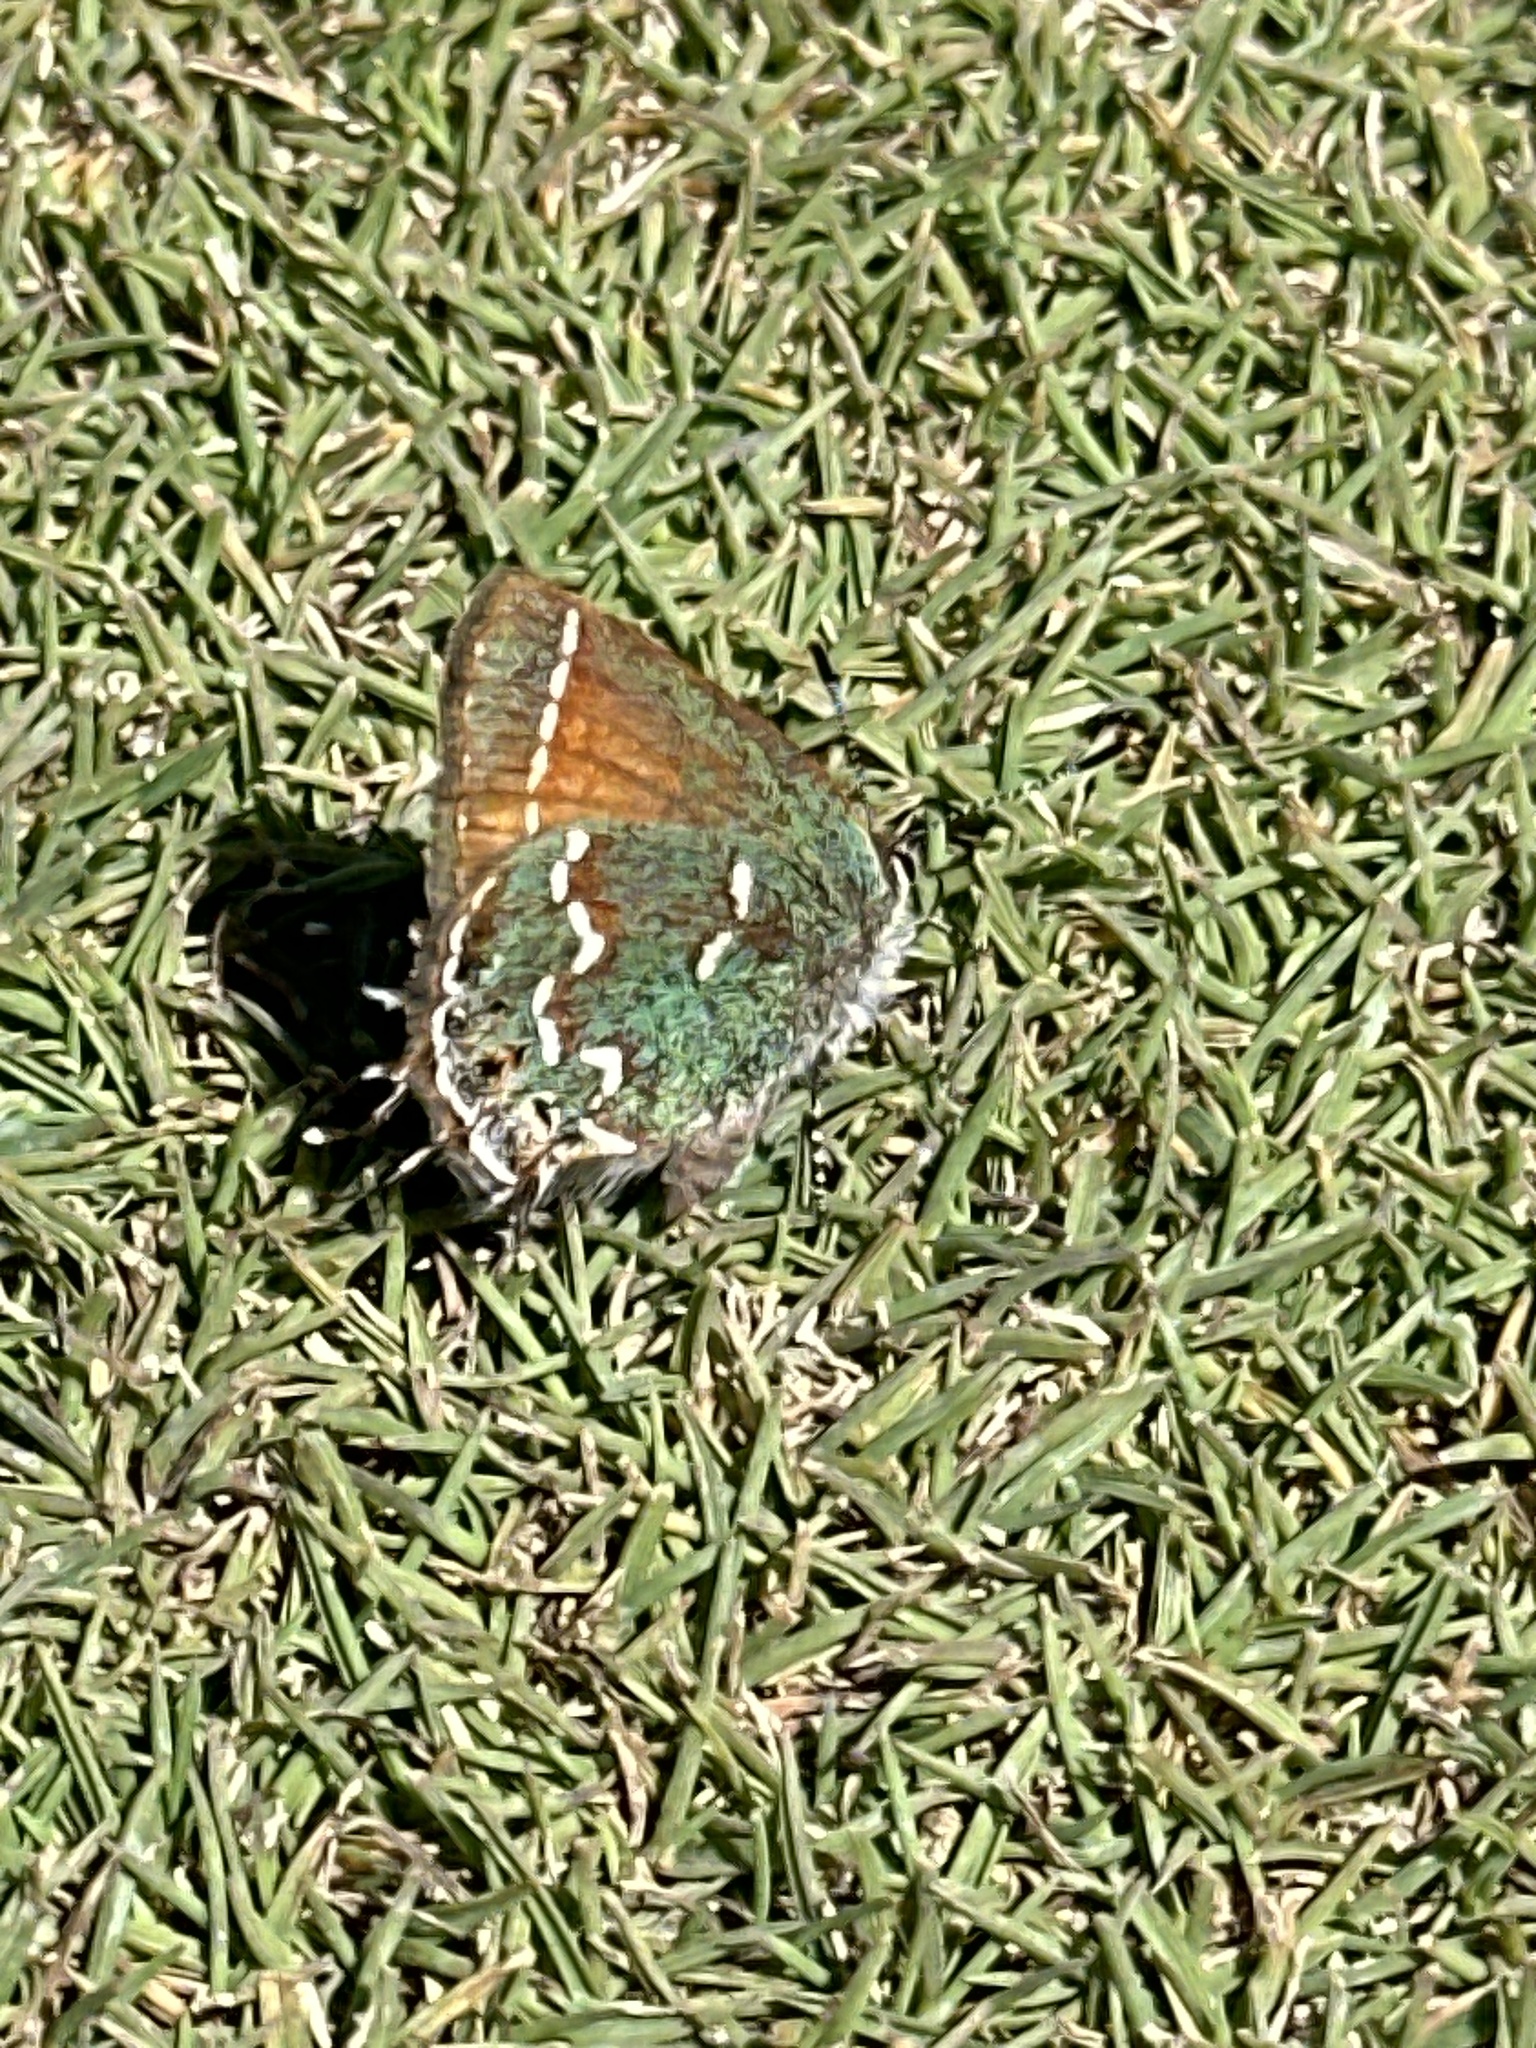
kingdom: Animalia
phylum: Arthropoda
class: Insecta
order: Lepidoptera
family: Lycaenidae
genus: Mitoura
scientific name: Mitoura gryneus
